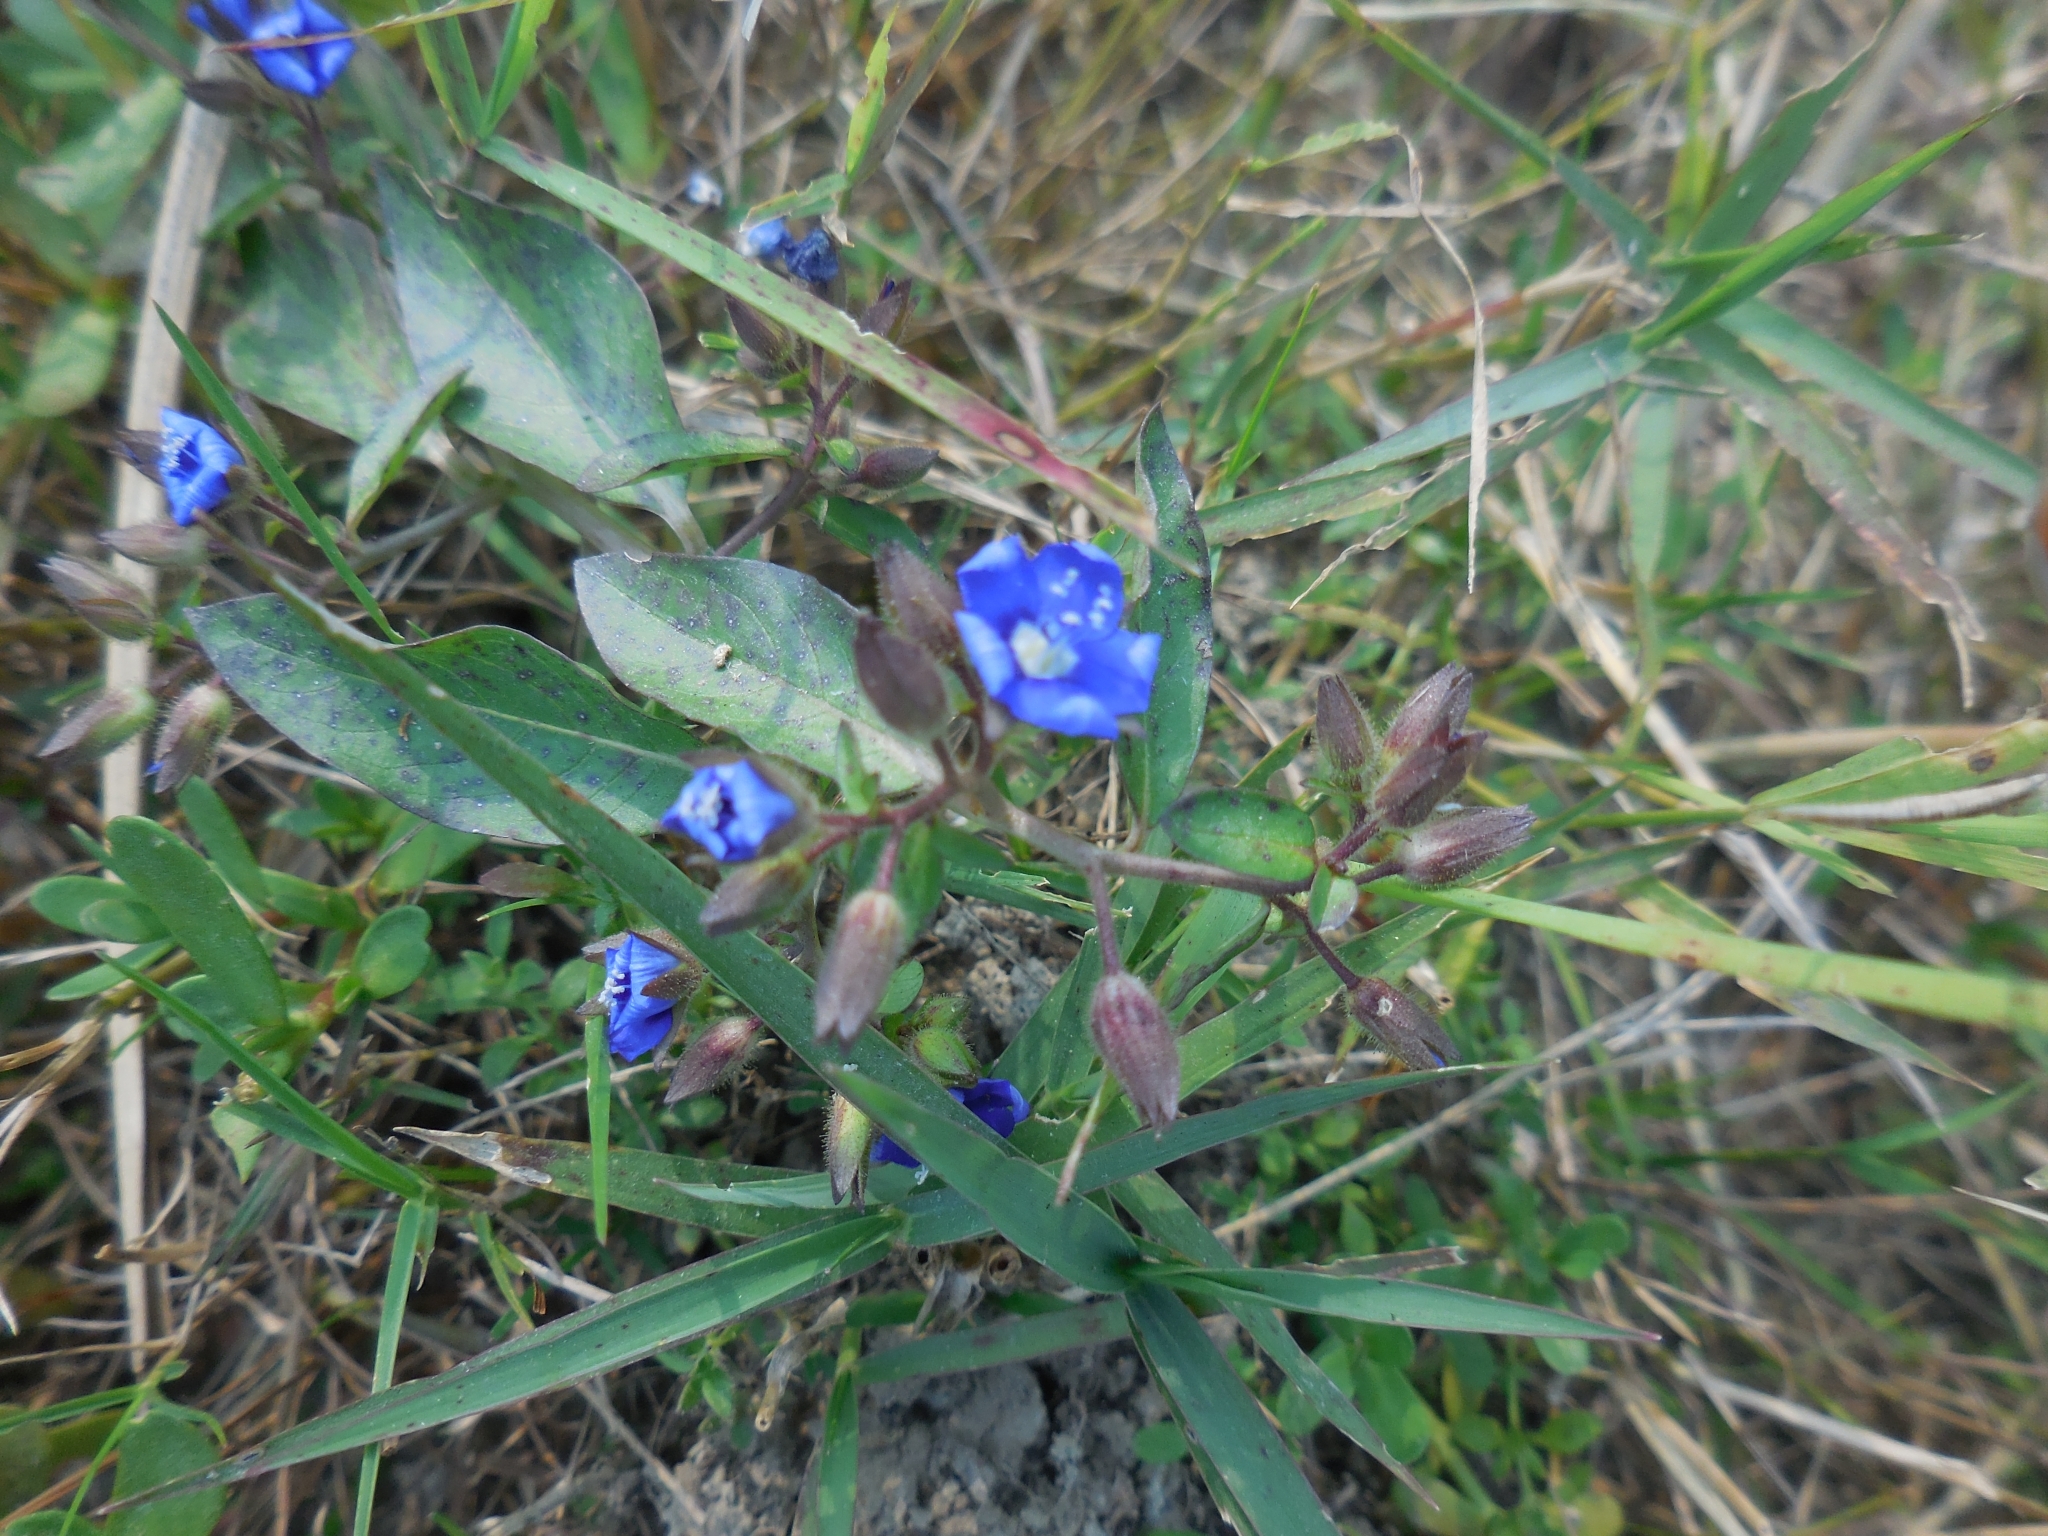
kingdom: Plantae
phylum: Tracheophyta
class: Magnoliopsida
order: Solanales
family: Hydroleaceae
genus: Hydrolea
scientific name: Hydrolea zeylanica
